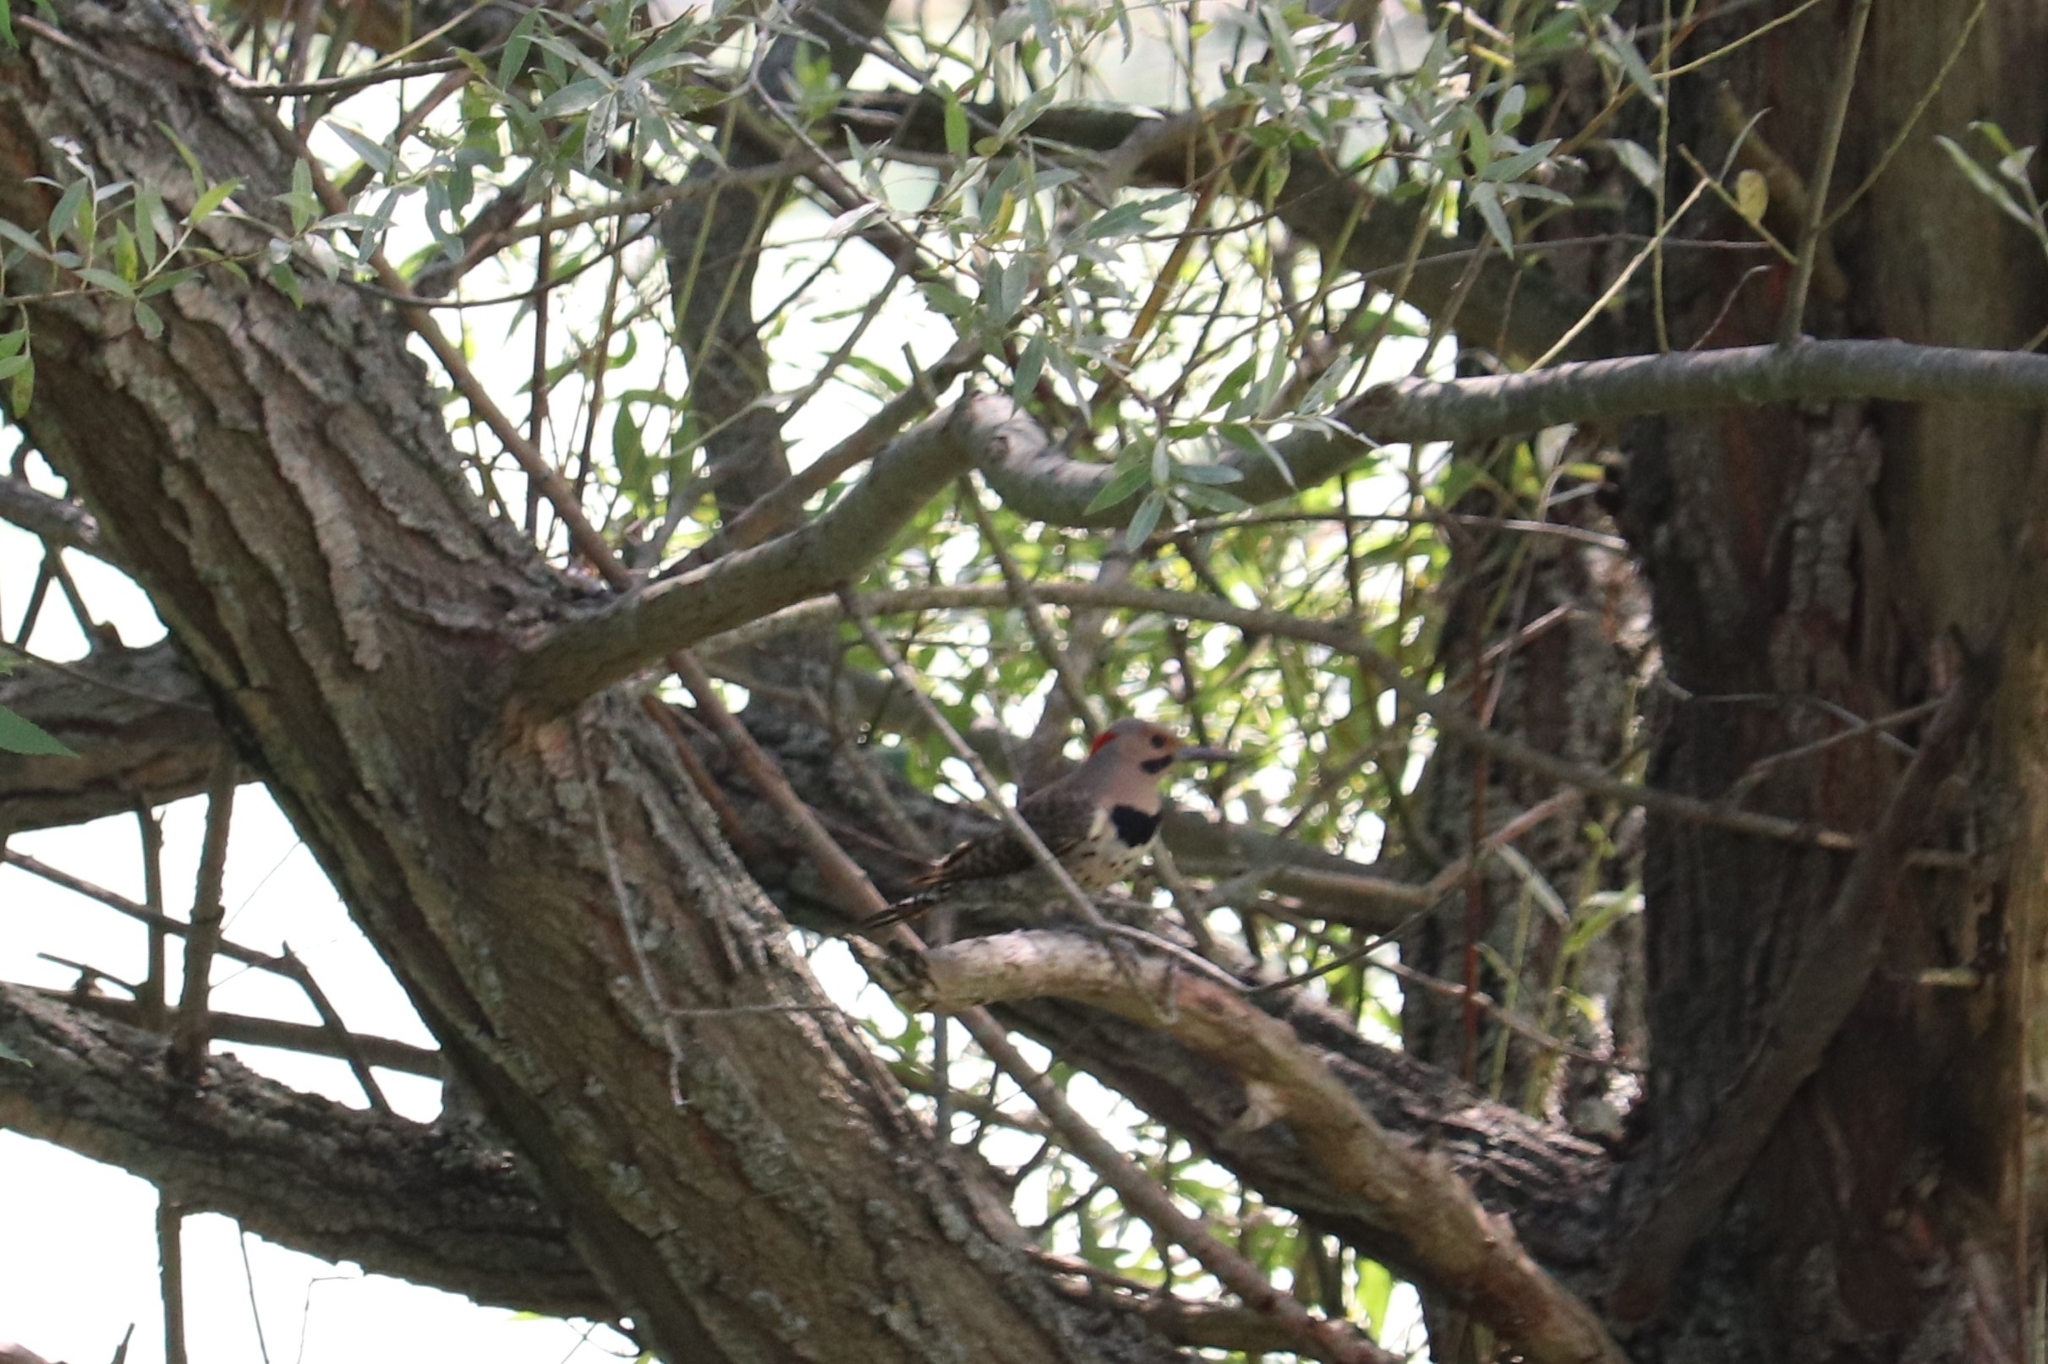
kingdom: Animalia
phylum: Chordata
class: Aves
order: Piciformes
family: Picidae
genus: Colaptes
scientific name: Colaptes auratus
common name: Northern flicker
